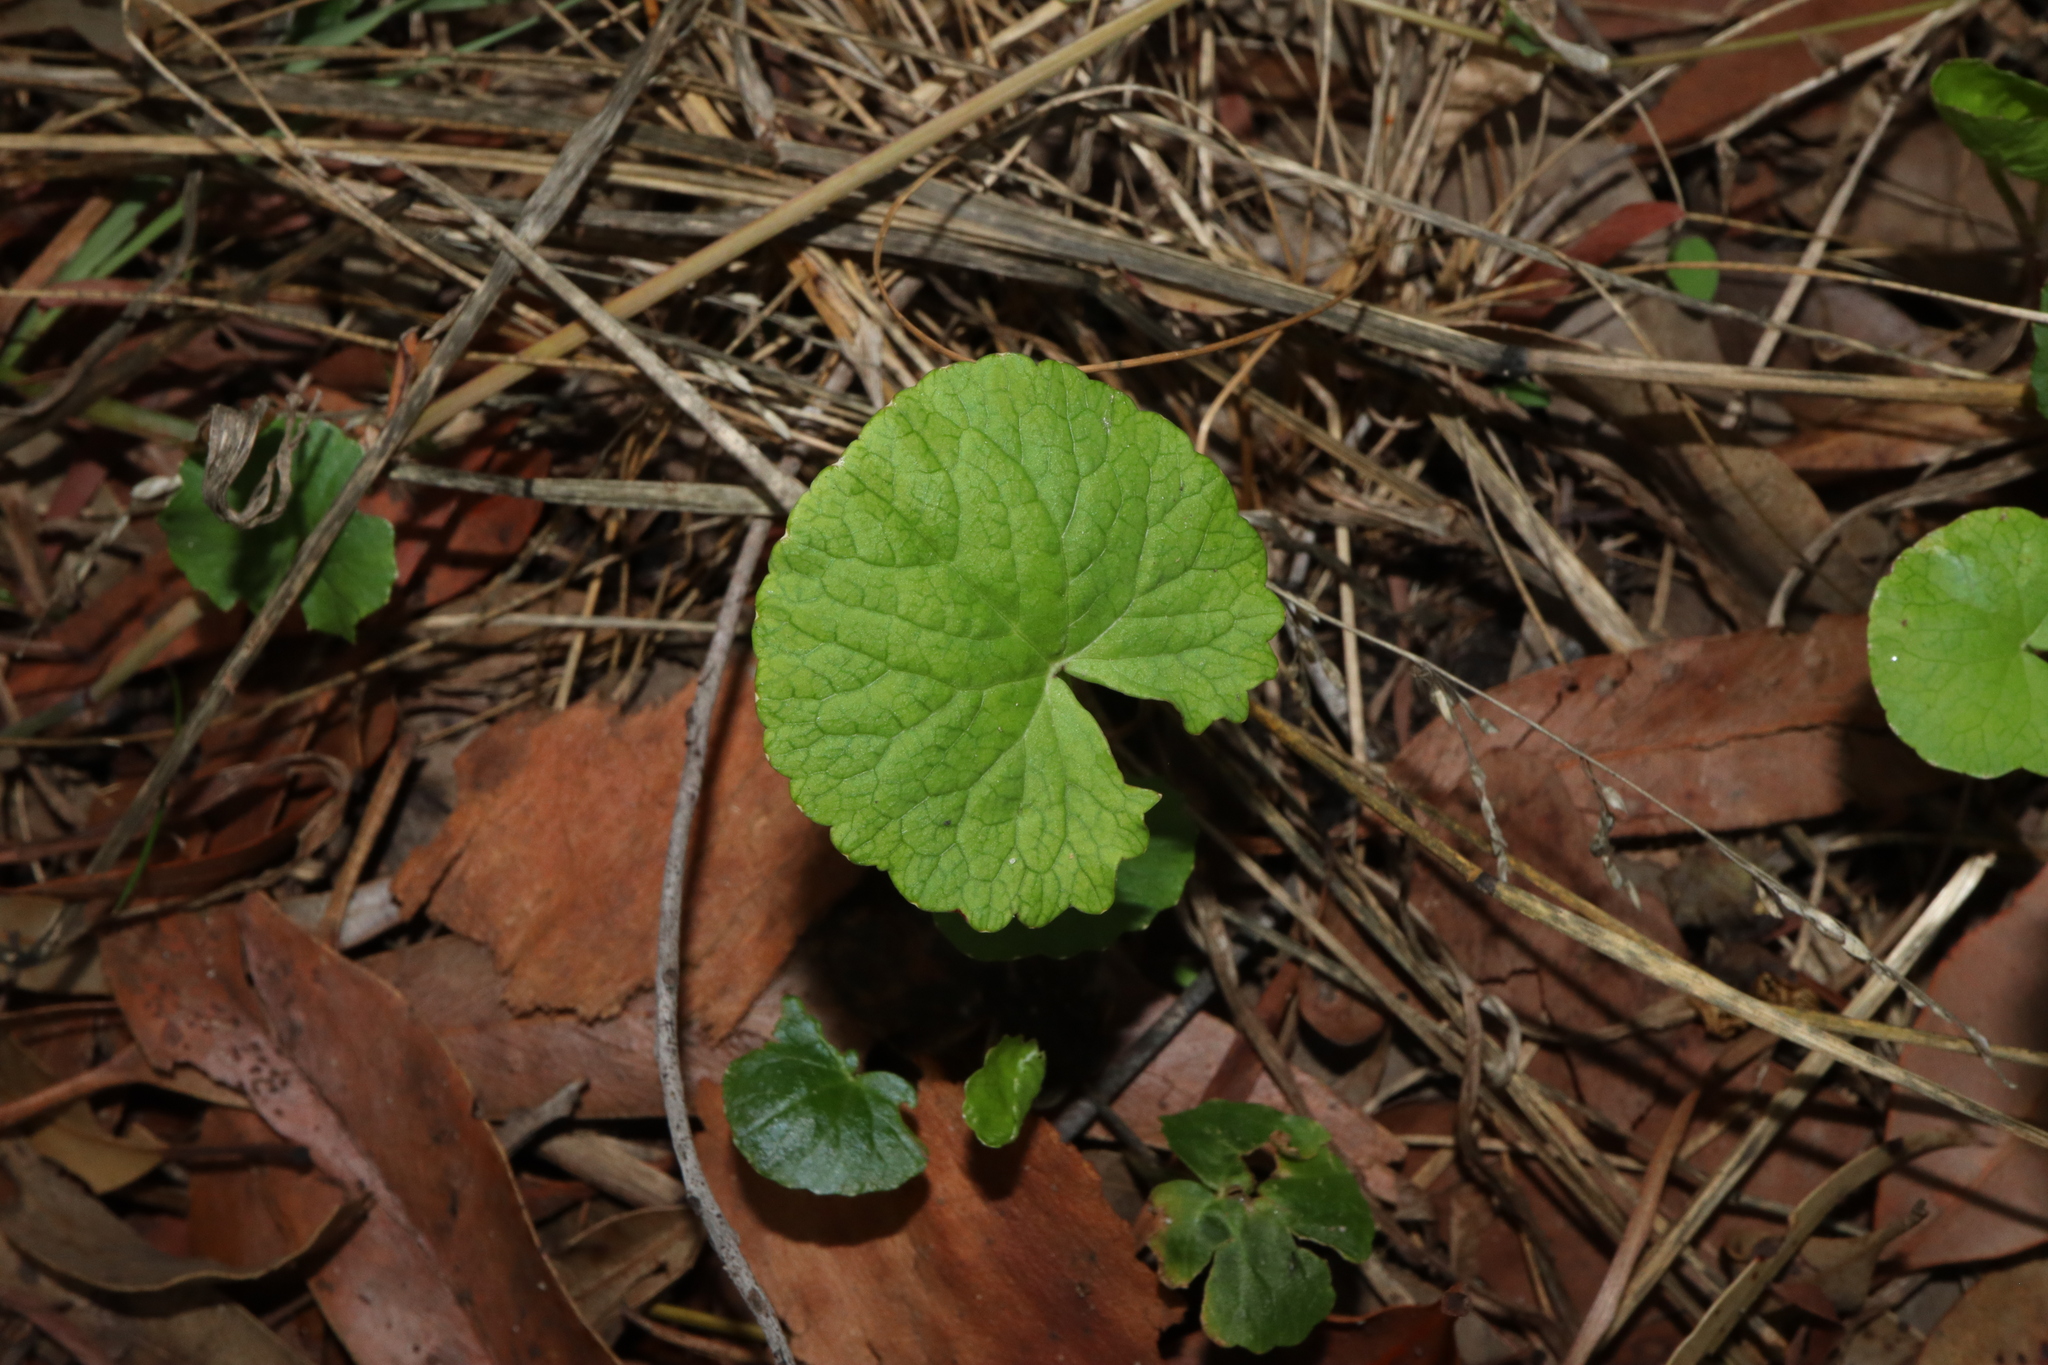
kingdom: Plantae
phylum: Tracheophyta
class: Magnoliopsida
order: Apiales
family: Apiaceae
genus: Centella
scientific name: Centella asiatica
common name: Spadeleaf
